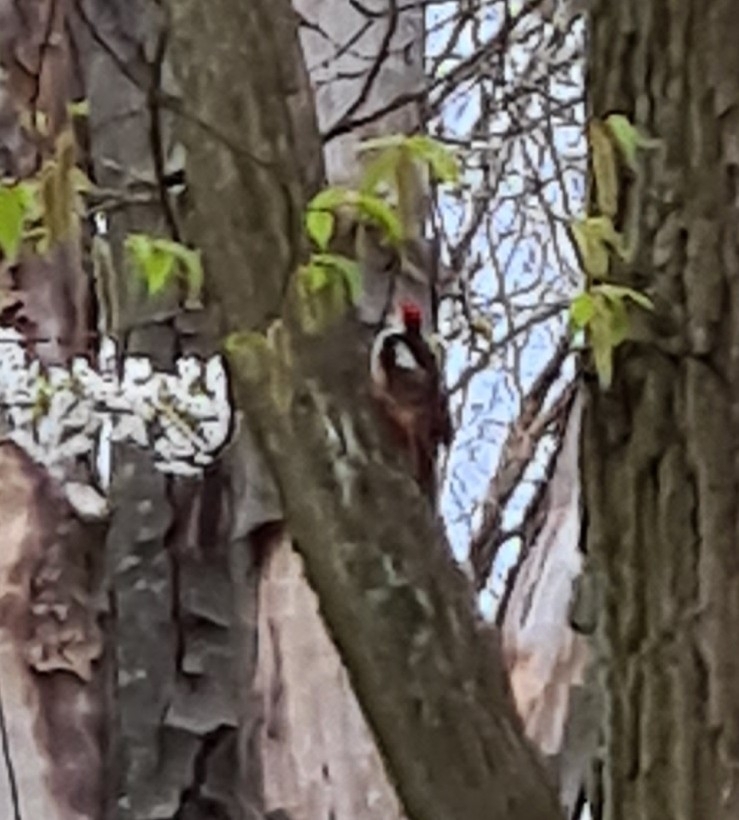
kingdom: Animalia
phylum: Chordata
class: Aves
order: Piciformes
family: Picidae
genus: Dendrocoptes
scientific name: Dendrocoptes medius
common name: Middle spotted woodpecker
